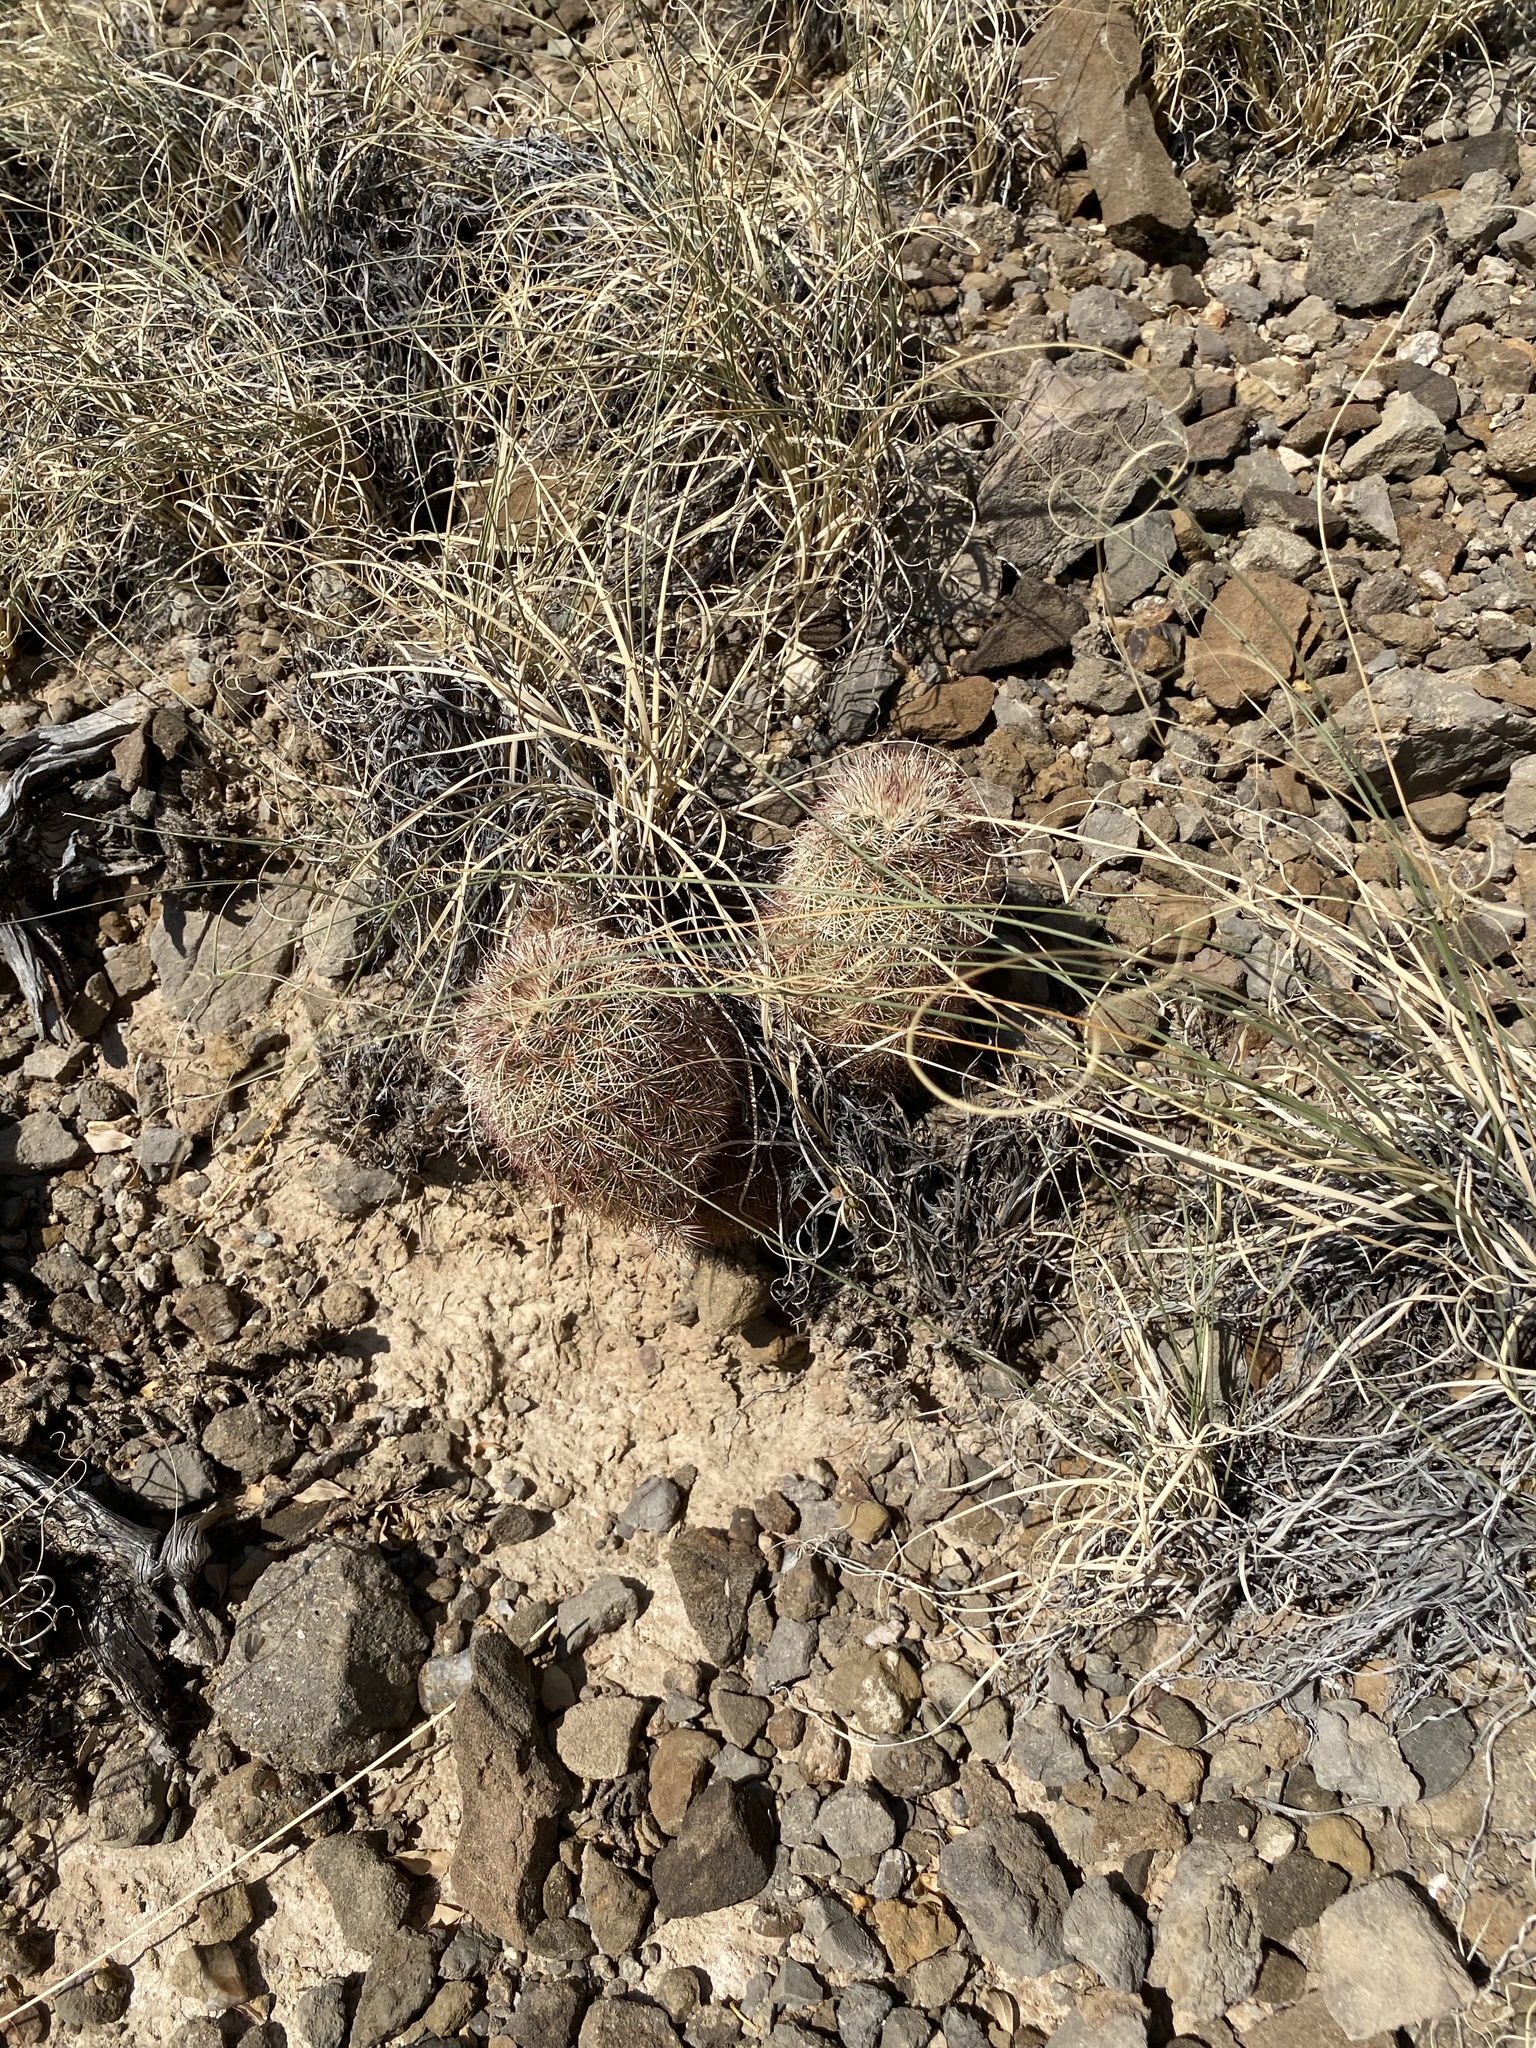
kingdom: Plantae
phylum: Tracheophyta
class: Magnoliopsida
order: Caryophyllales
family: Cactaceae
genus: Echinocereus
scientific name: Echinocereus dasyacanthus
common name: Spiny hedgehog cactus
